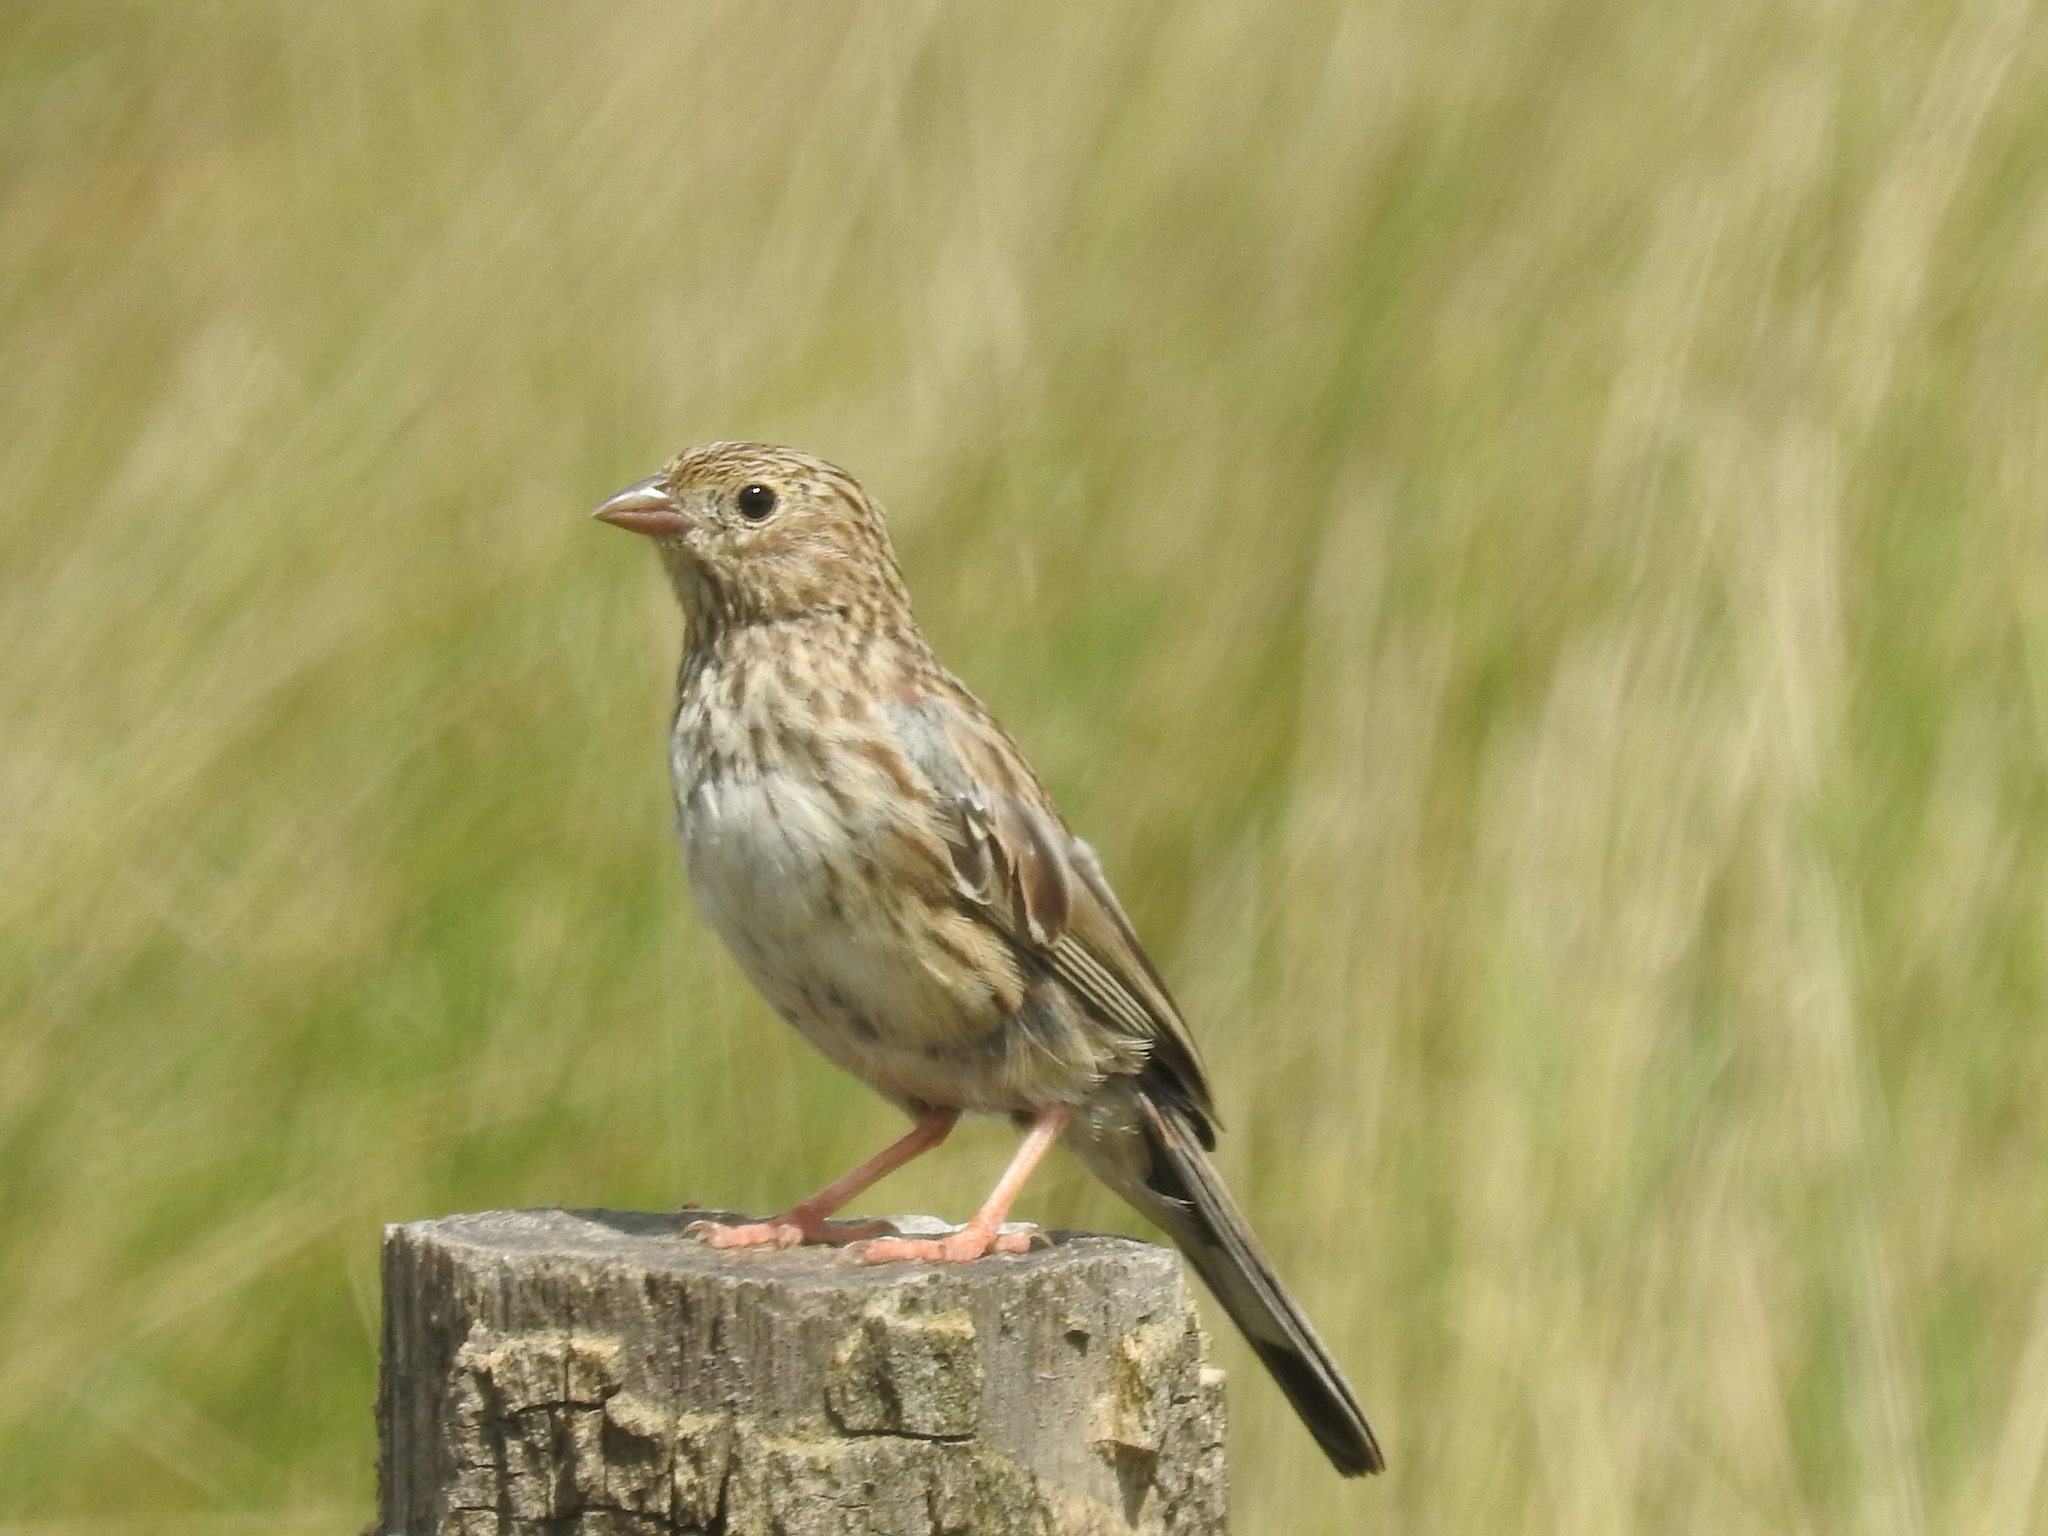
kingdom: Animalia
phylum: Chordata
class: Aves
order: Passeriformes
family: Thraupidae
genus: Porphyrospiza
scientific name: Porphyrospiza alaudina
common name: Band-tailed sierra finch
